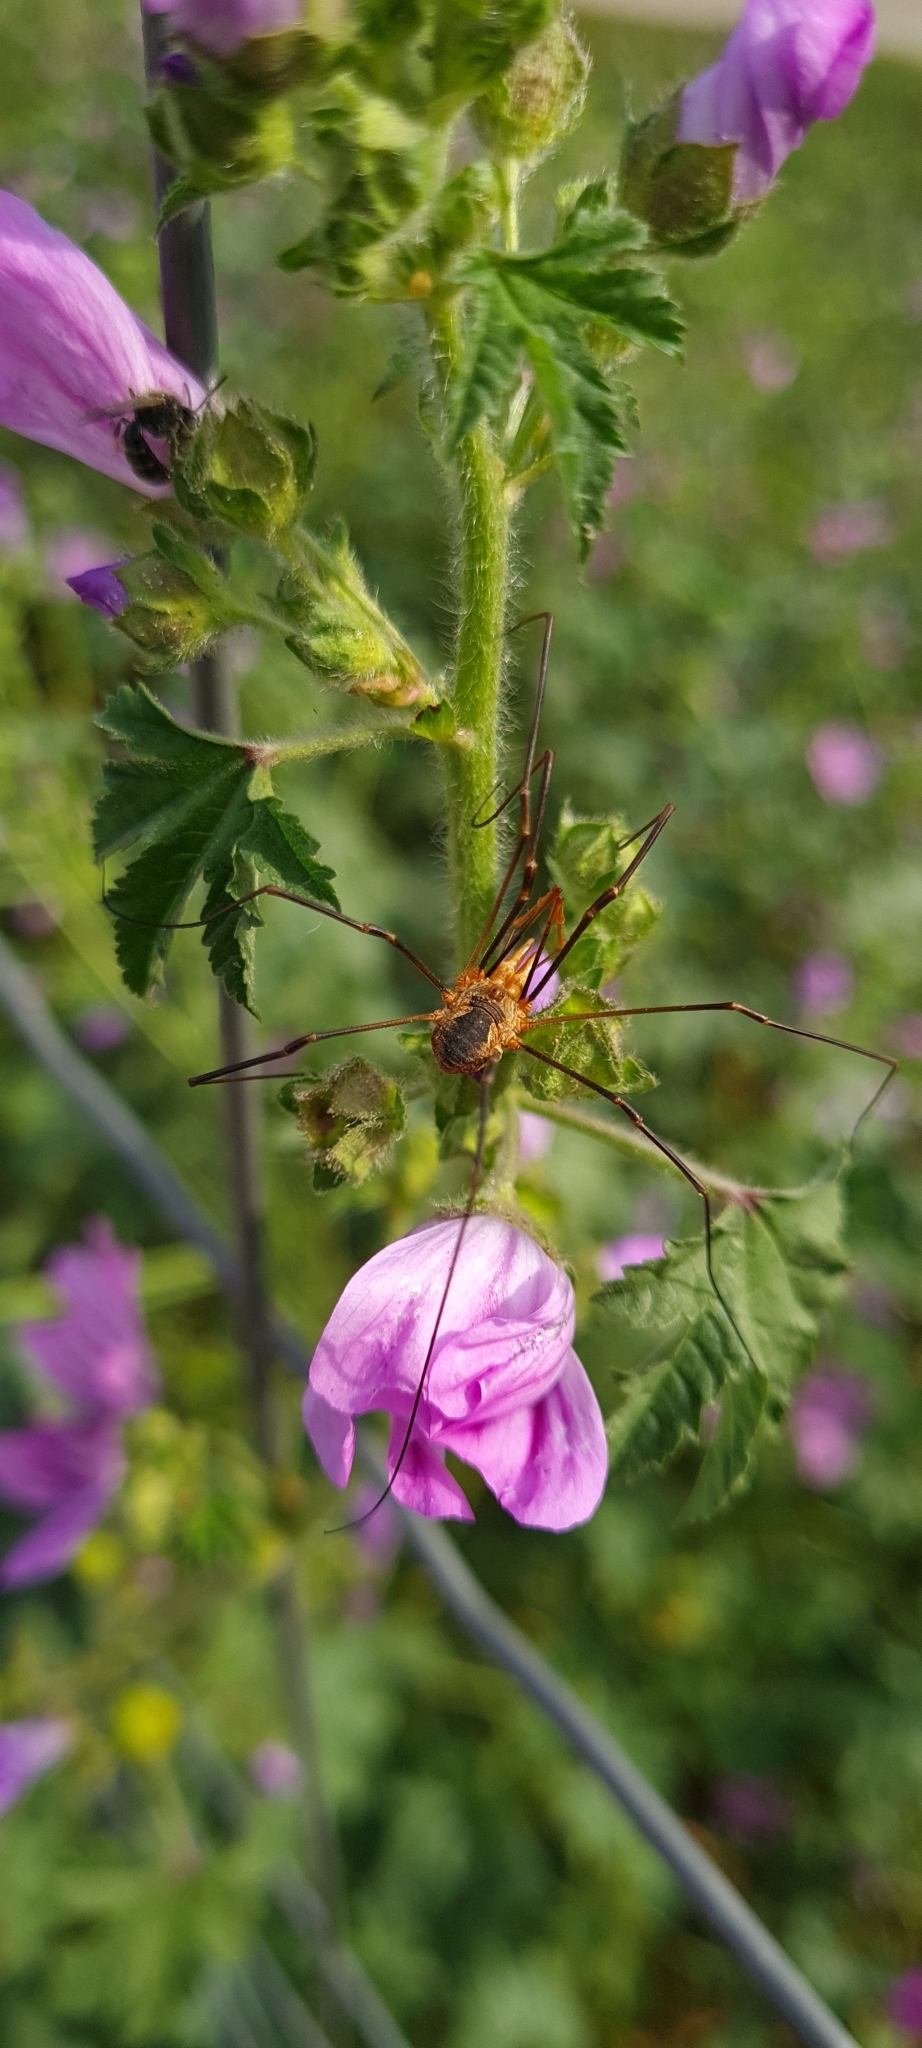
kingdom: Animalia
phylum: Arthropoda
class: Arachnida
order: Opiliones
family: Phalangiidae
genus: Phalangium
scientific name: Phalangium opilio
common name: Daddy longleg
